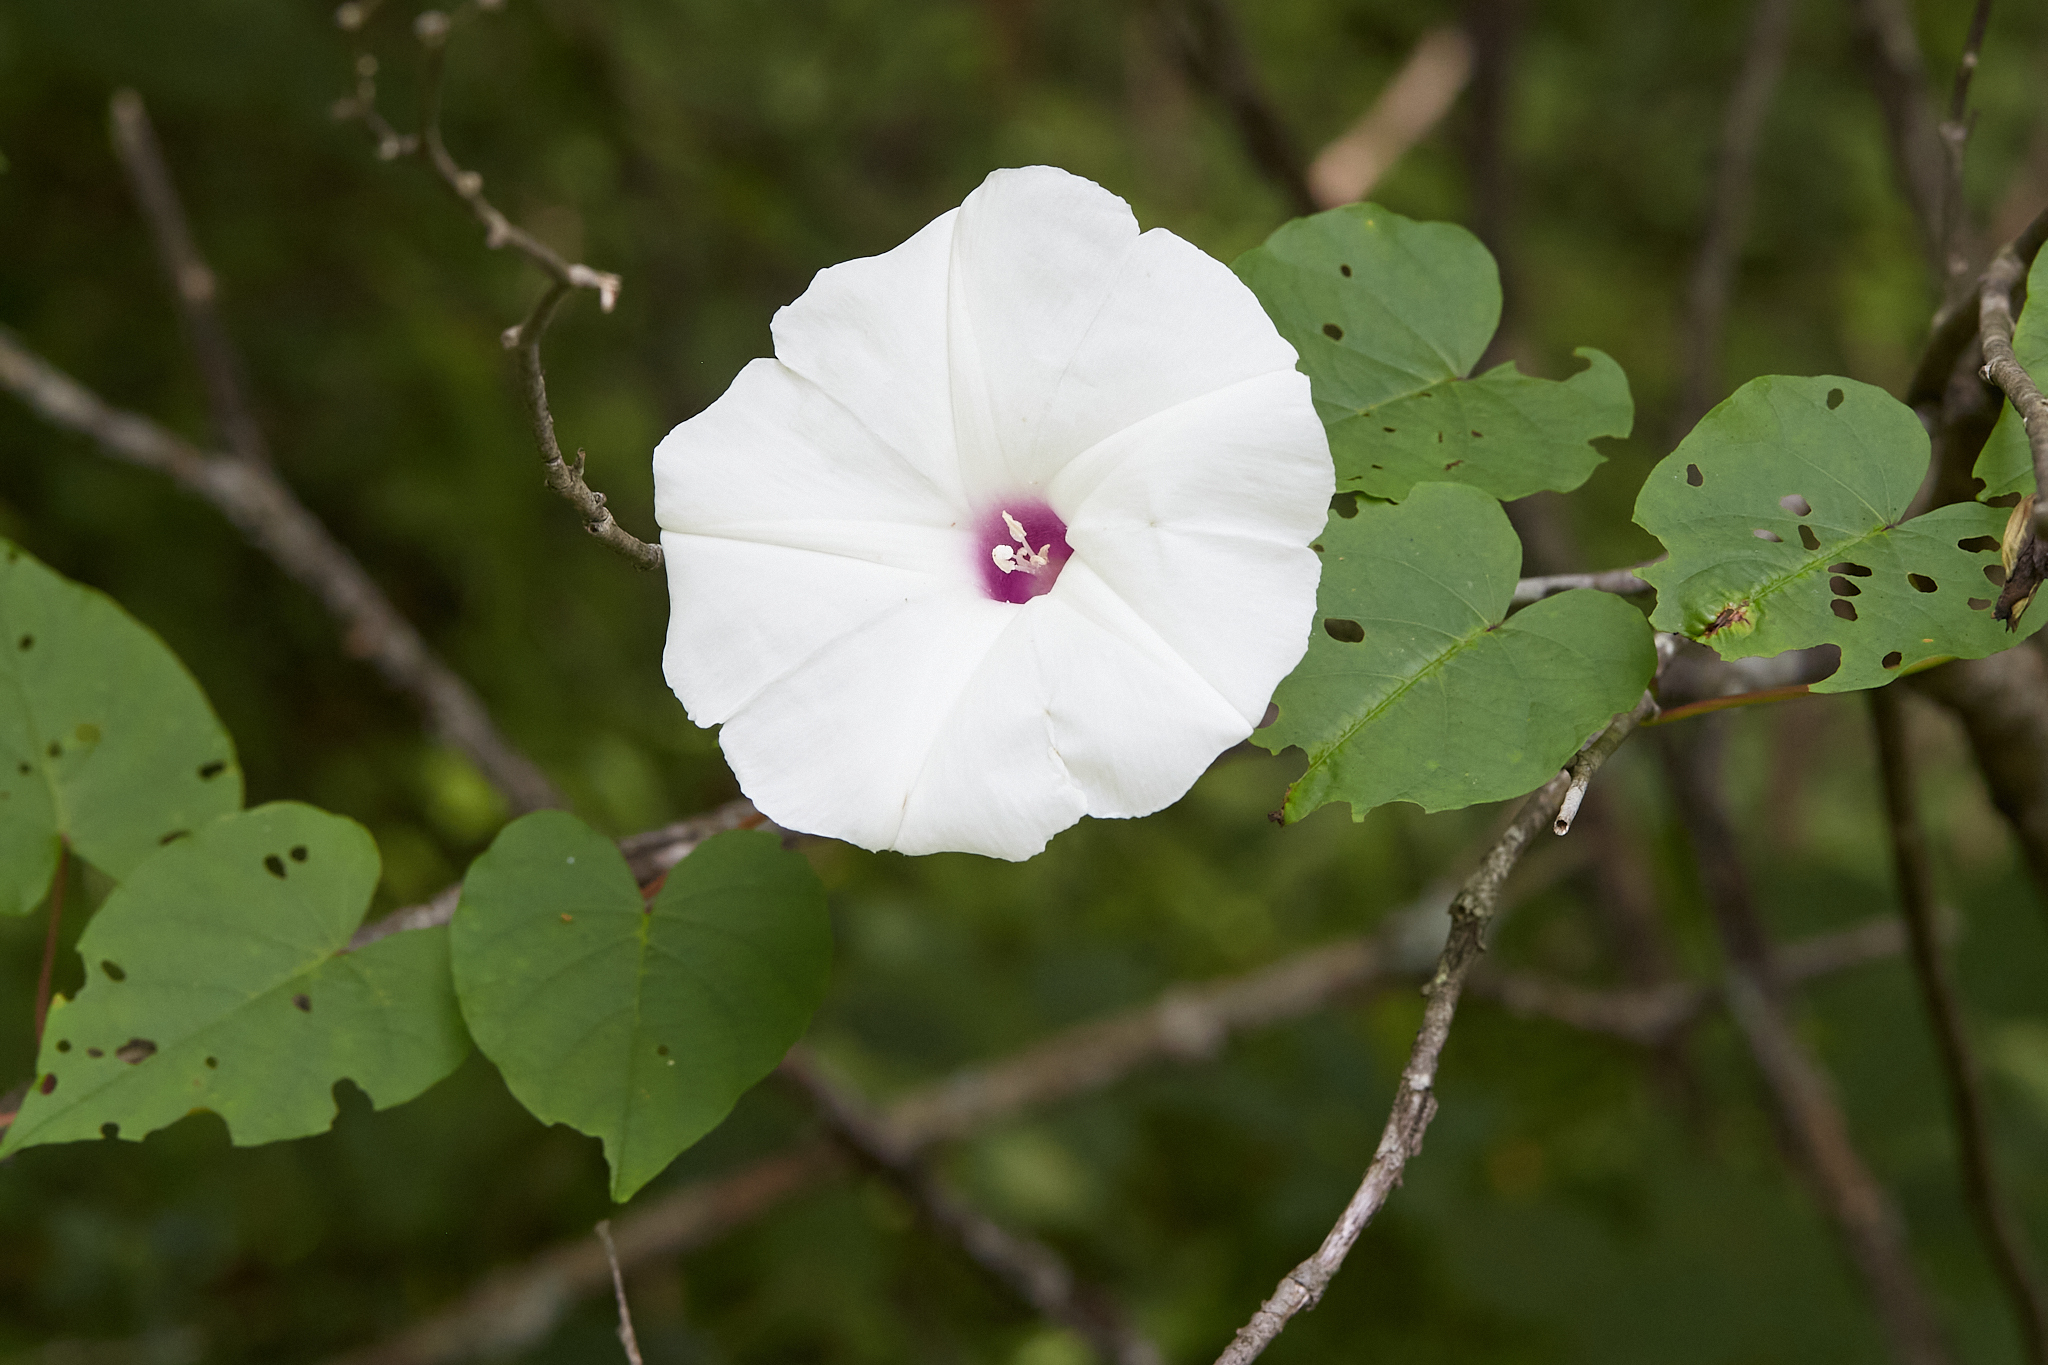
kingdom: Plantae
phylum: Tracheophyta
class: Magnoliopsida
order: Solanales
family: Convolvulaceae
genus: Ipomoea
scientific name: Ipomoea pandurata
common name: Man-of-the-earth
